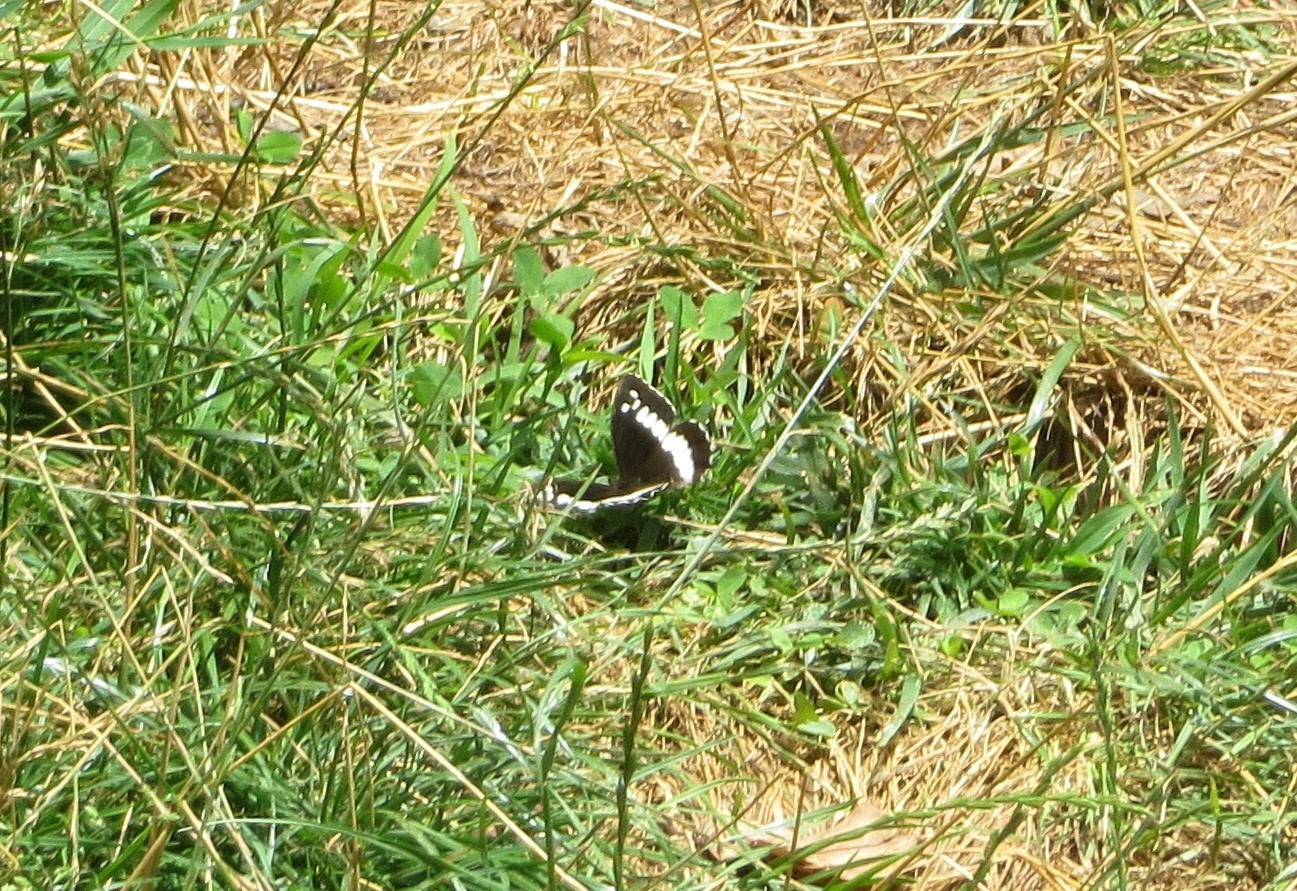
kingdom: Animalia
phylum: Arthropoda
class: Insecta
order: Lepidoptera
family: Lycaenidae
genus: Loweia
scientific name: Loweia tityrus
